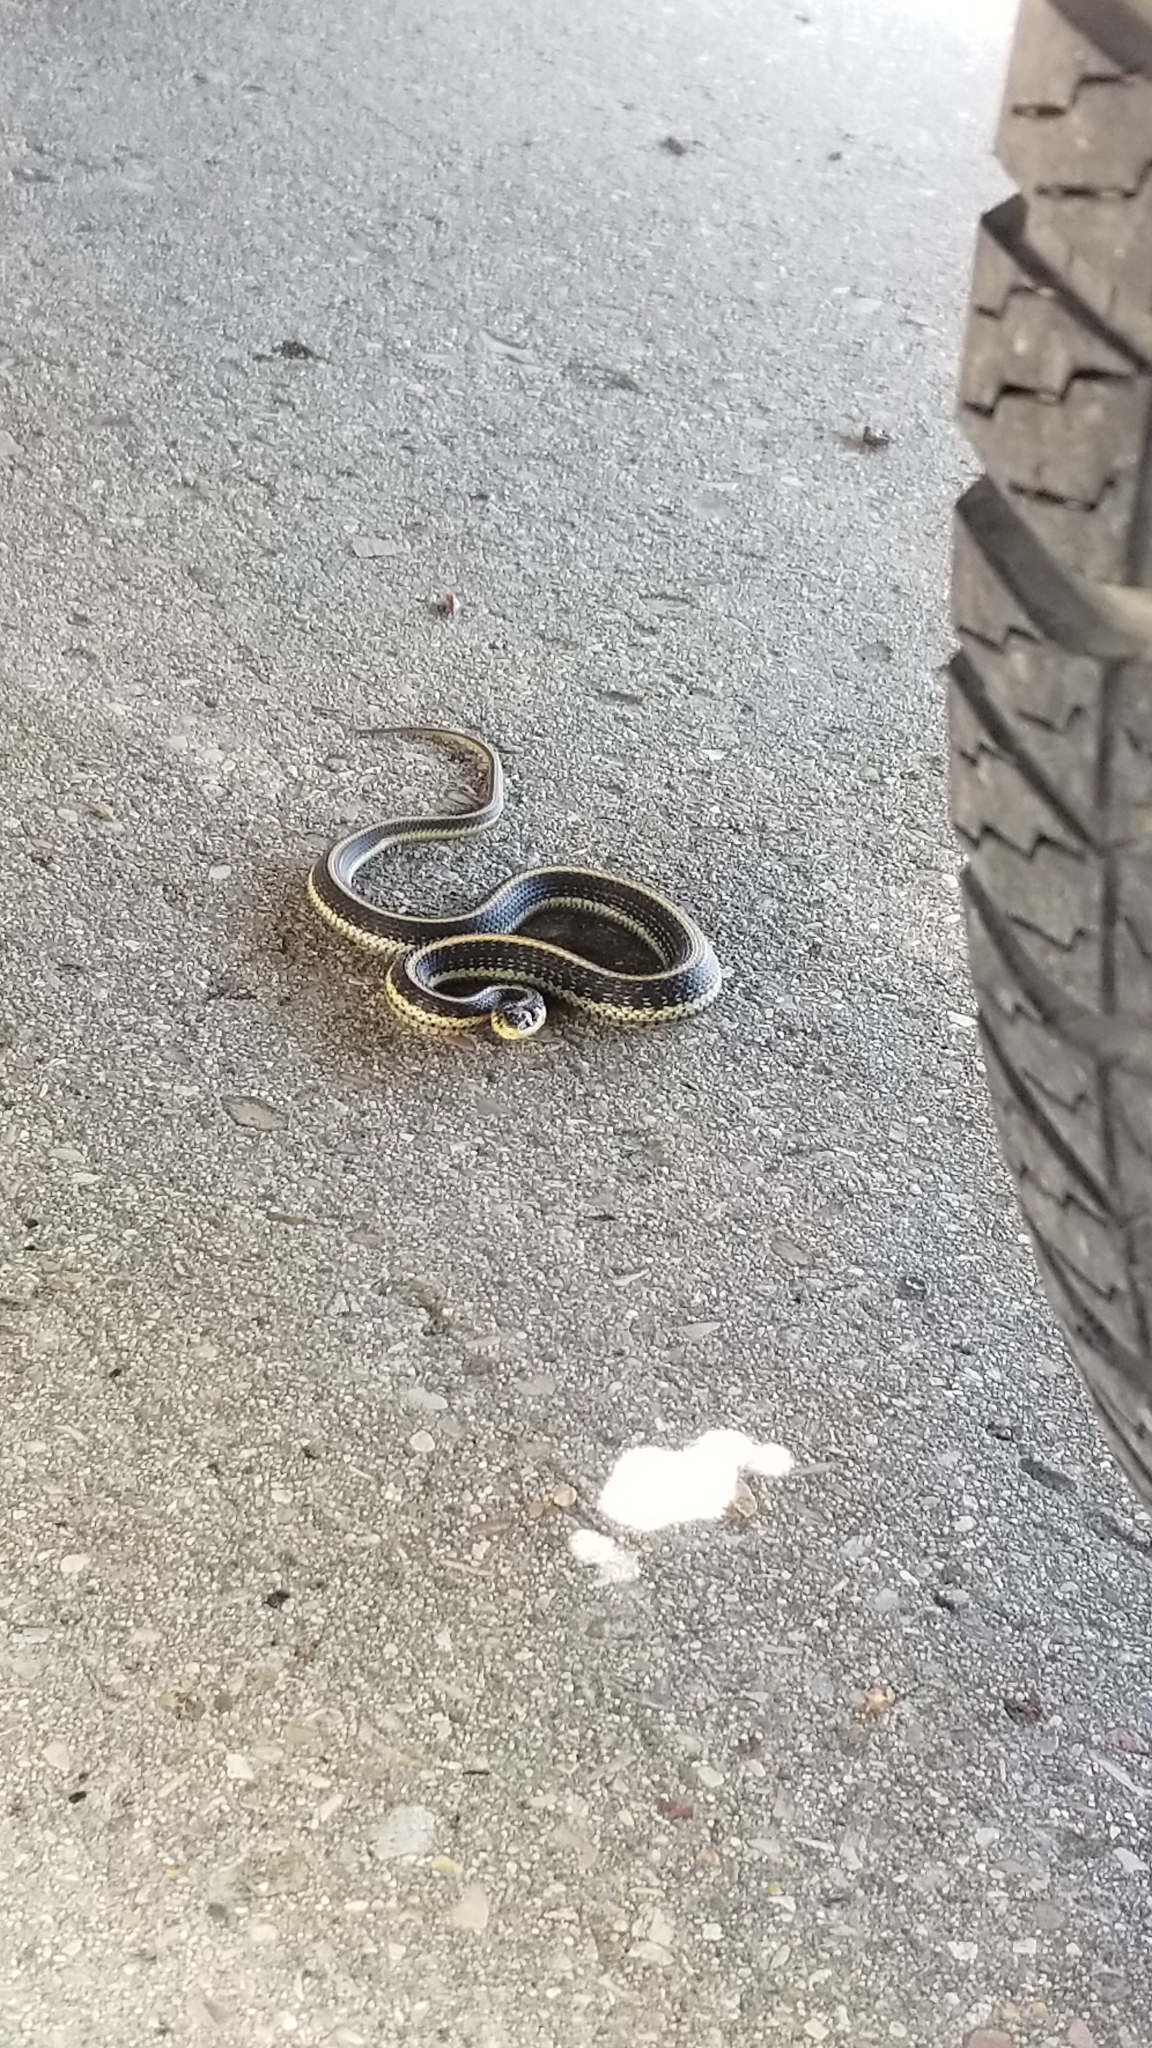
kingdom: Animalia
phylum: Chordata
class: Squamata
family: Colubridae
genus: Thamnophis
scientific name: Thamnophis elegans
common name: Western terrestrial garter snake
